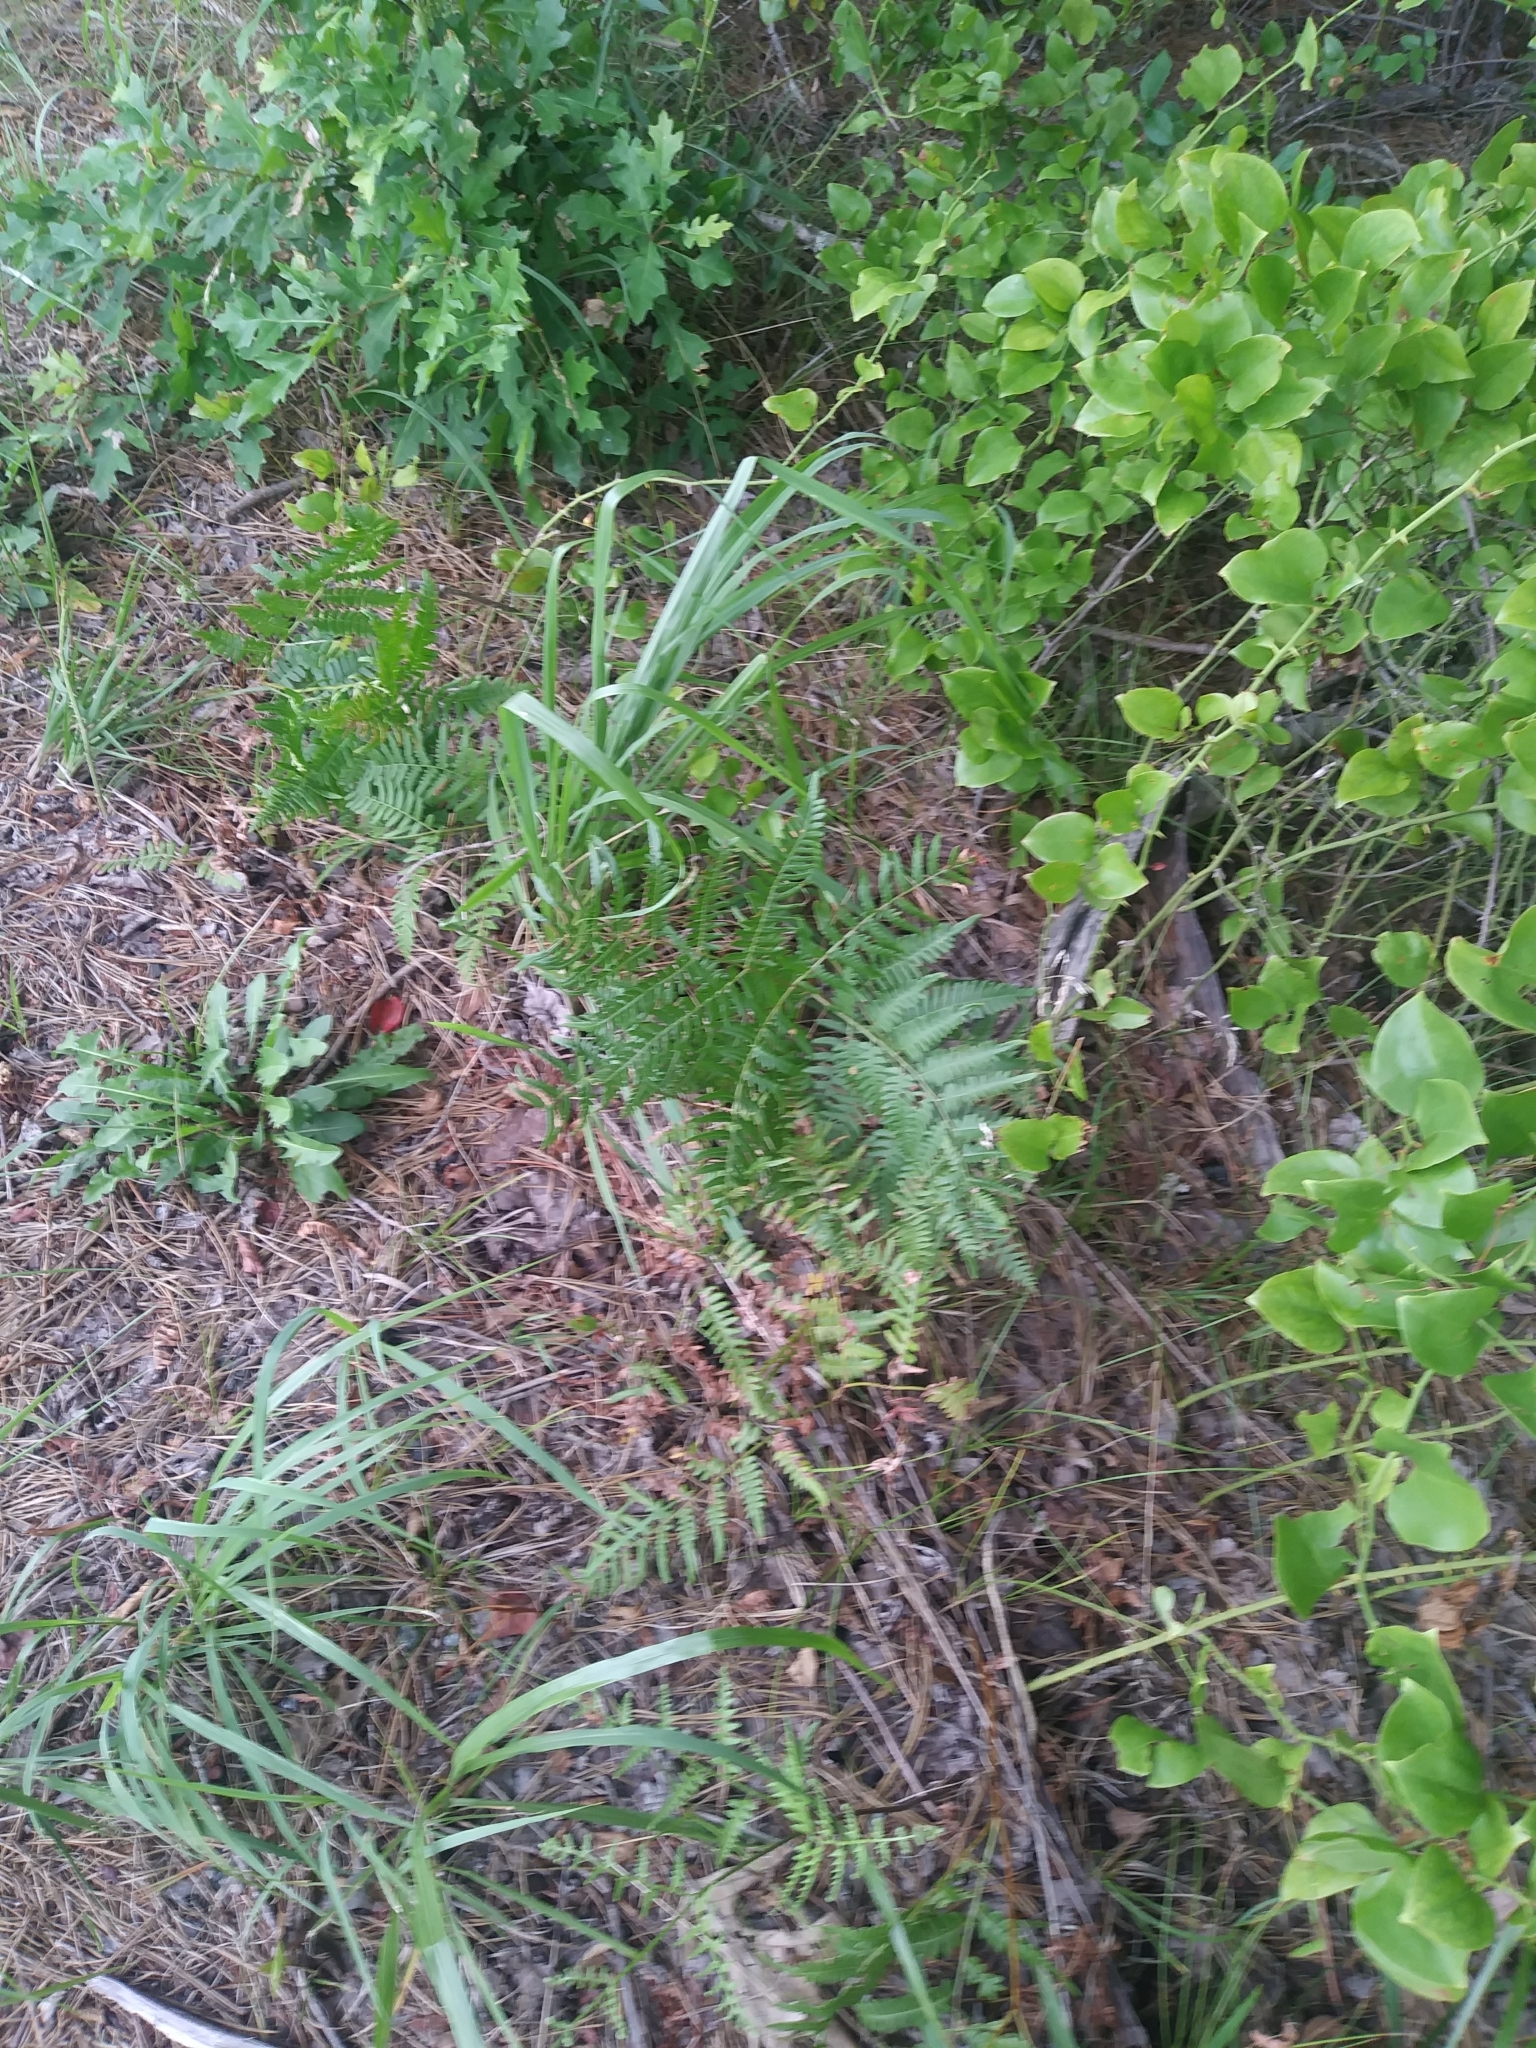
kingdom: Plantae
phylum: Tracheophyta
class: Polypodiopsida
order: Polypodiales
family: Dennstaedtiaceae
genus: Pteridium
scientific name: Pteridium aquilinum
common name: Bracken
